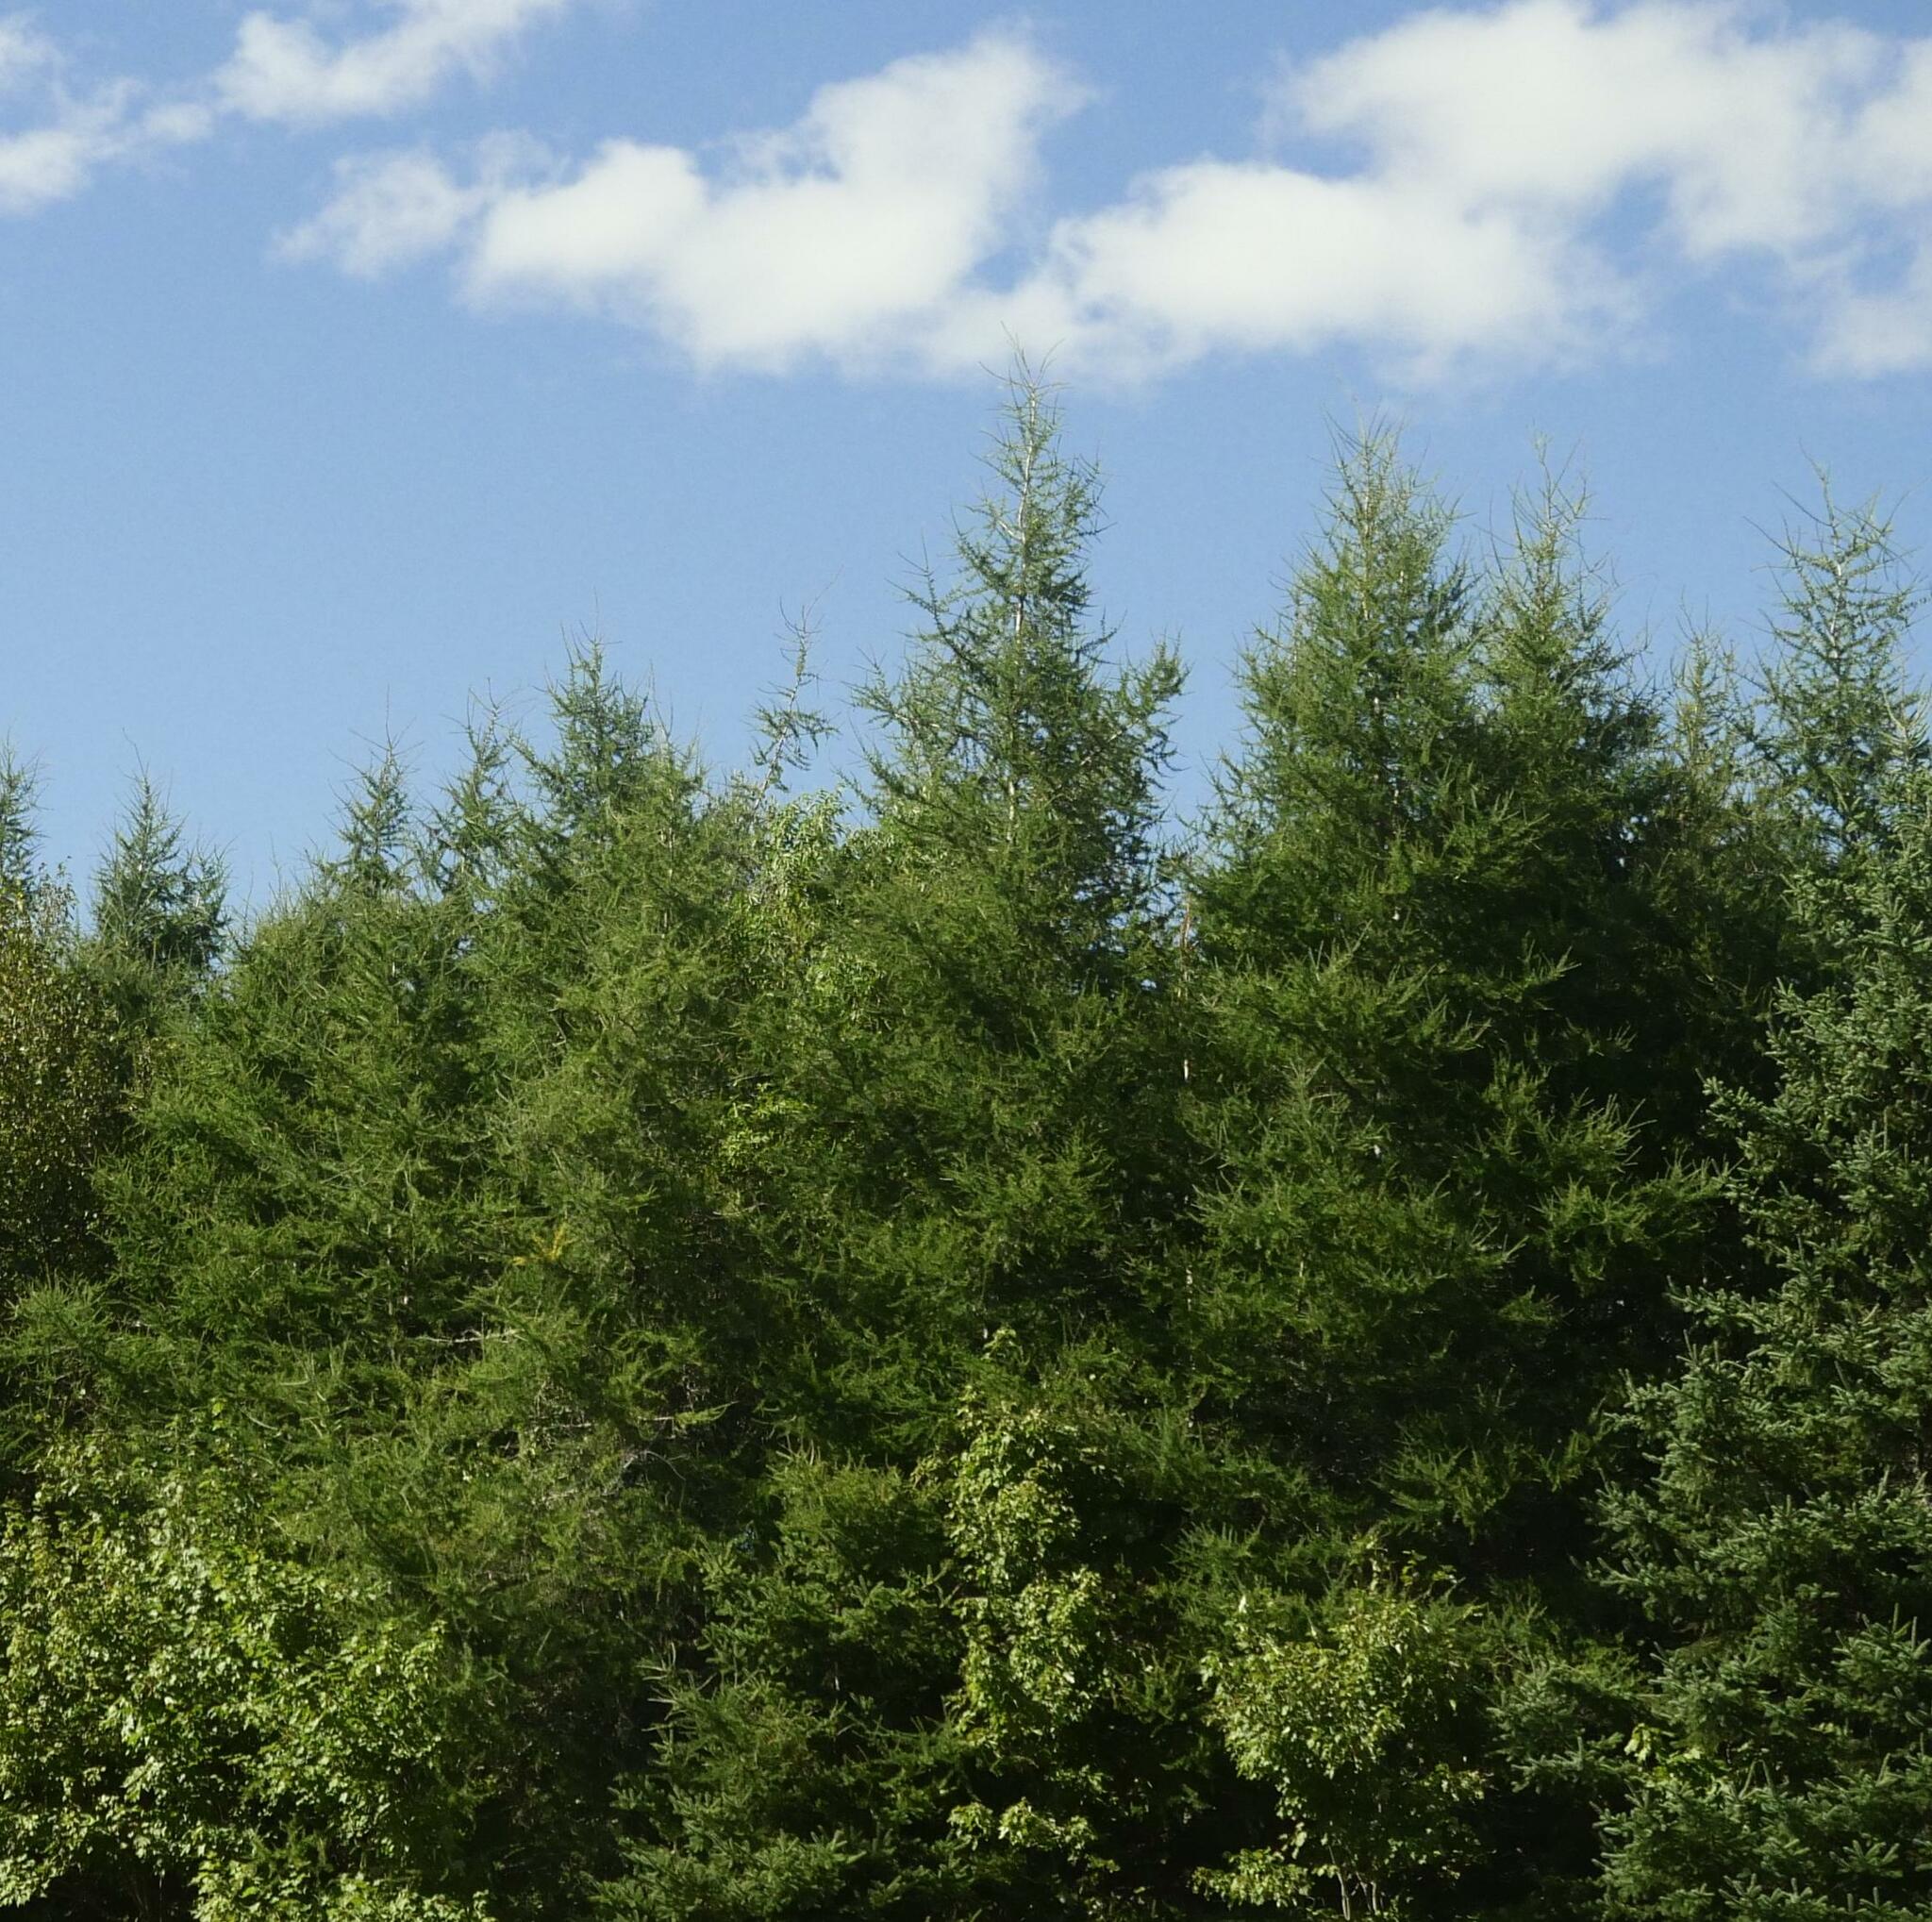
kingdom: Plantae
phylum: Tracheophyta
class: Pinopsida
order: Pinales
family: Pinaceae
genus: Larix
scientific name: Larix laricina
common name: American larch
